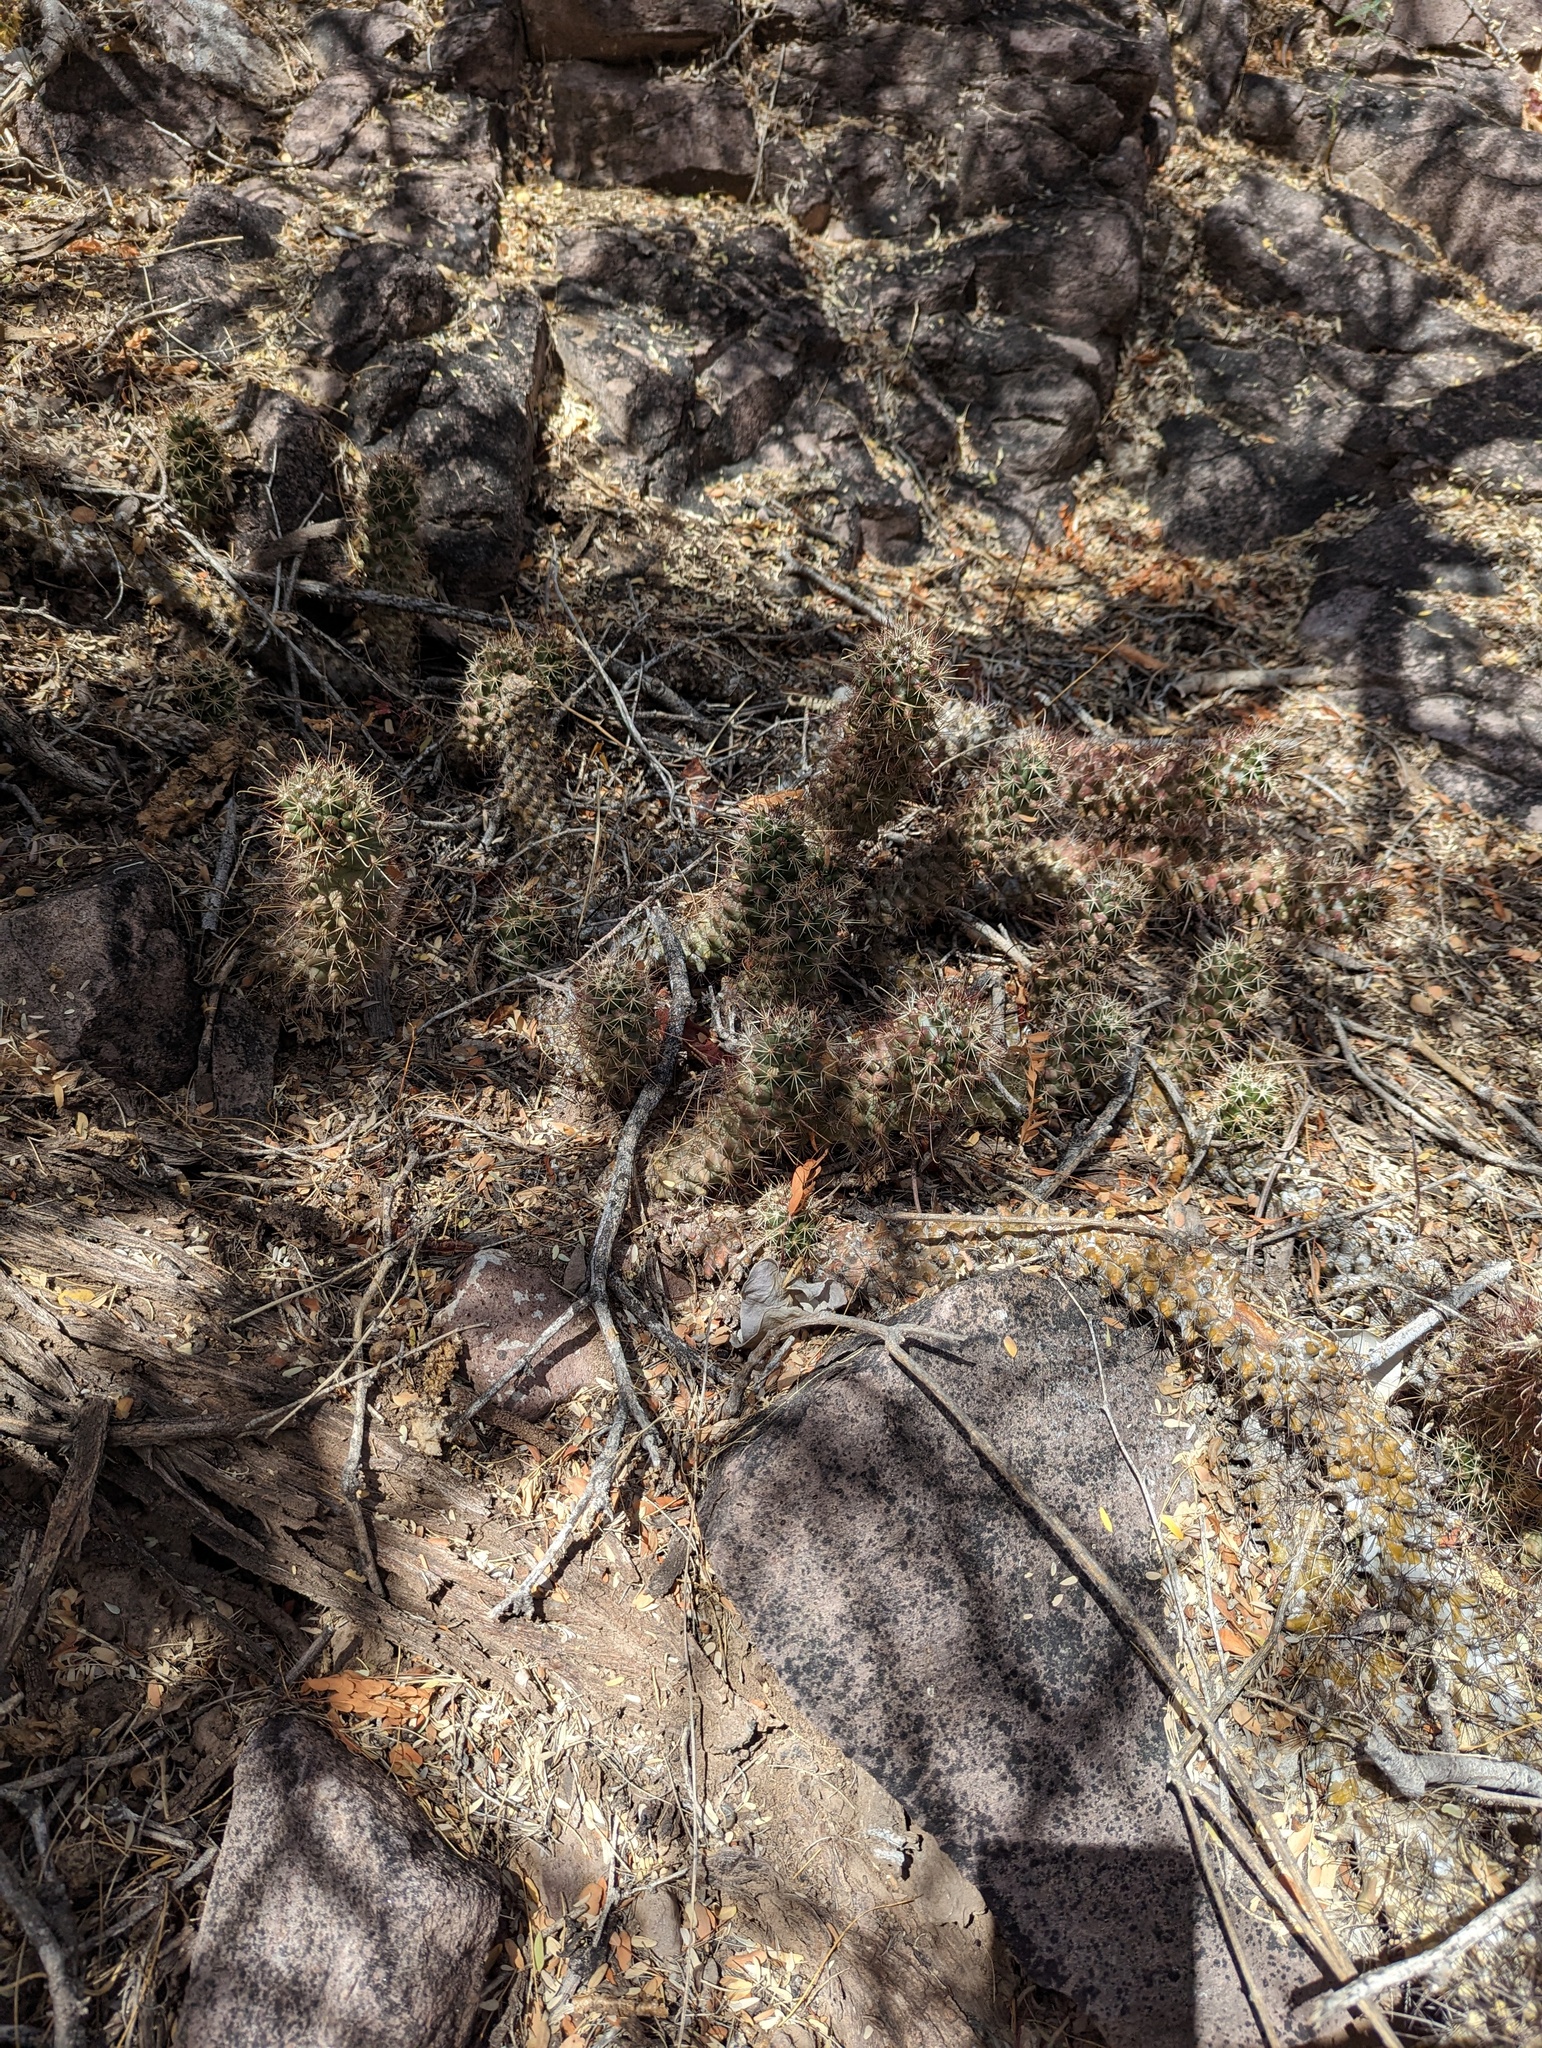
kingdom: Plantae
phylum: Tracheophyta
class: Magnoliopsida
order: Caryophyllales
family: Cactaceae
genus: Cochemiea
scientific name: Cochemiea poselgeri
